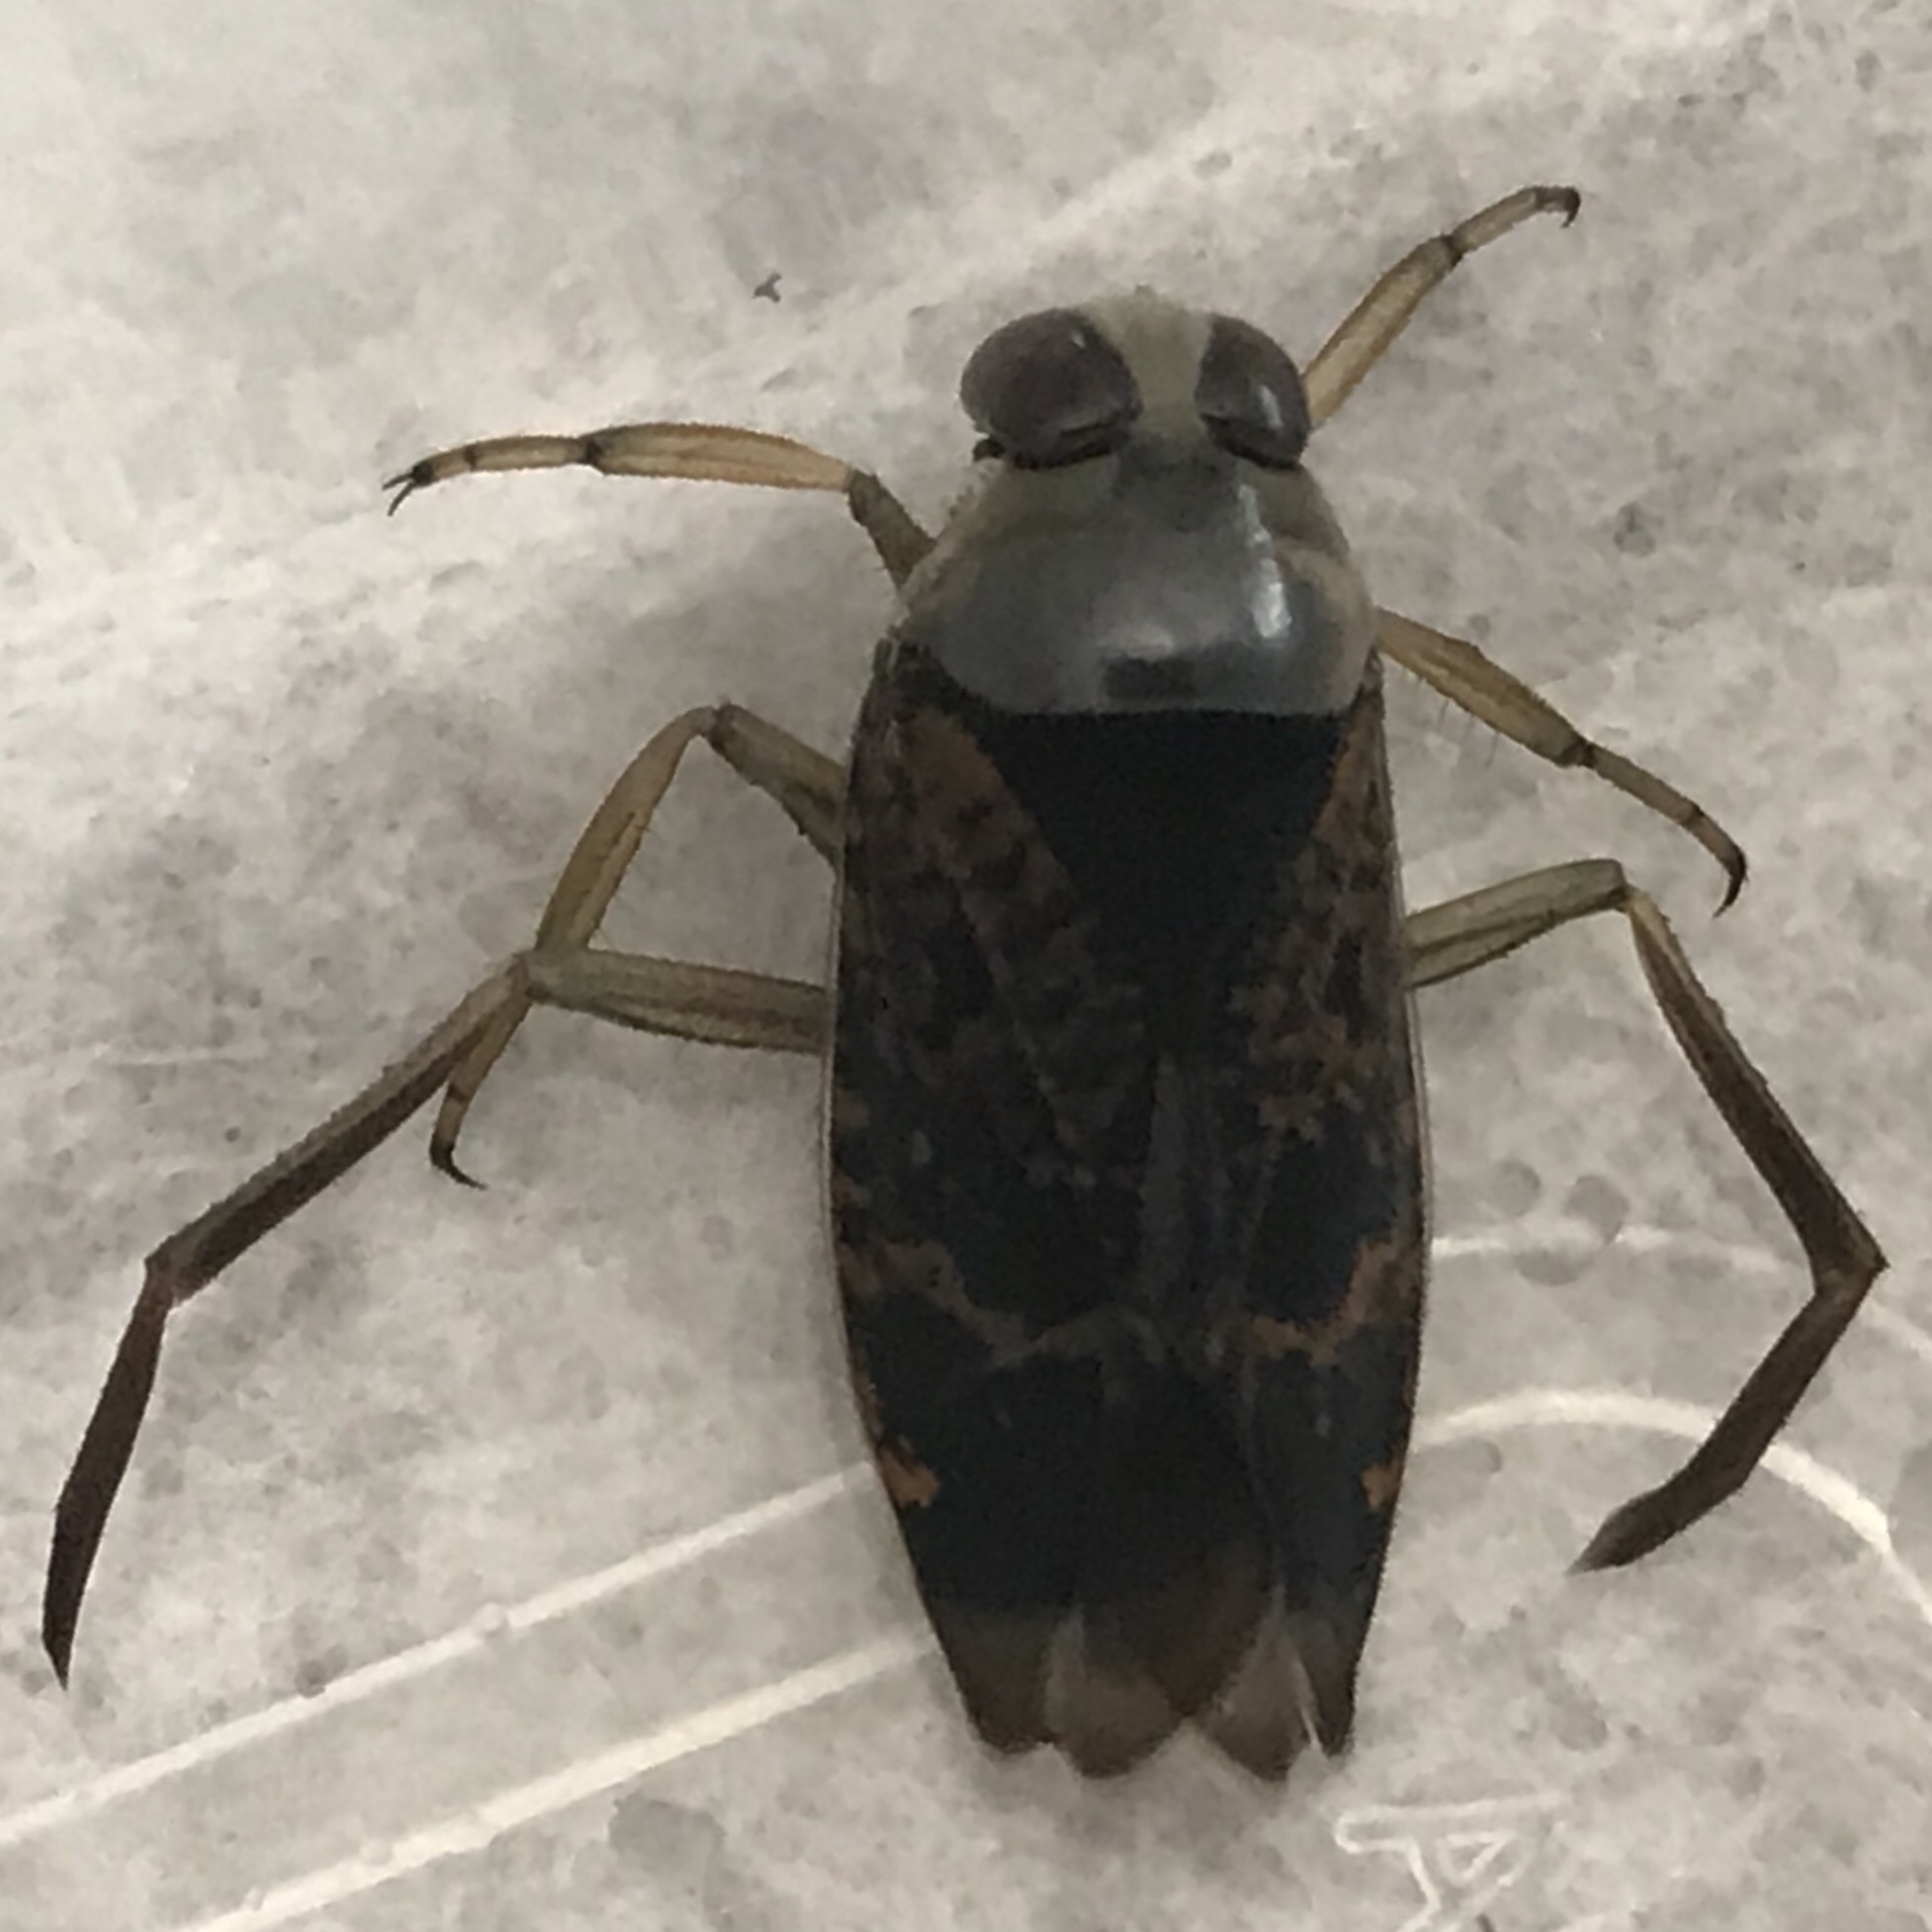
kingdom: Animalia
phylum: Arthropoda
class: Insecta
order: Hemiptera
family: Notonectidae
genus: Notonecta
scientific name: Notonecta irrorata
